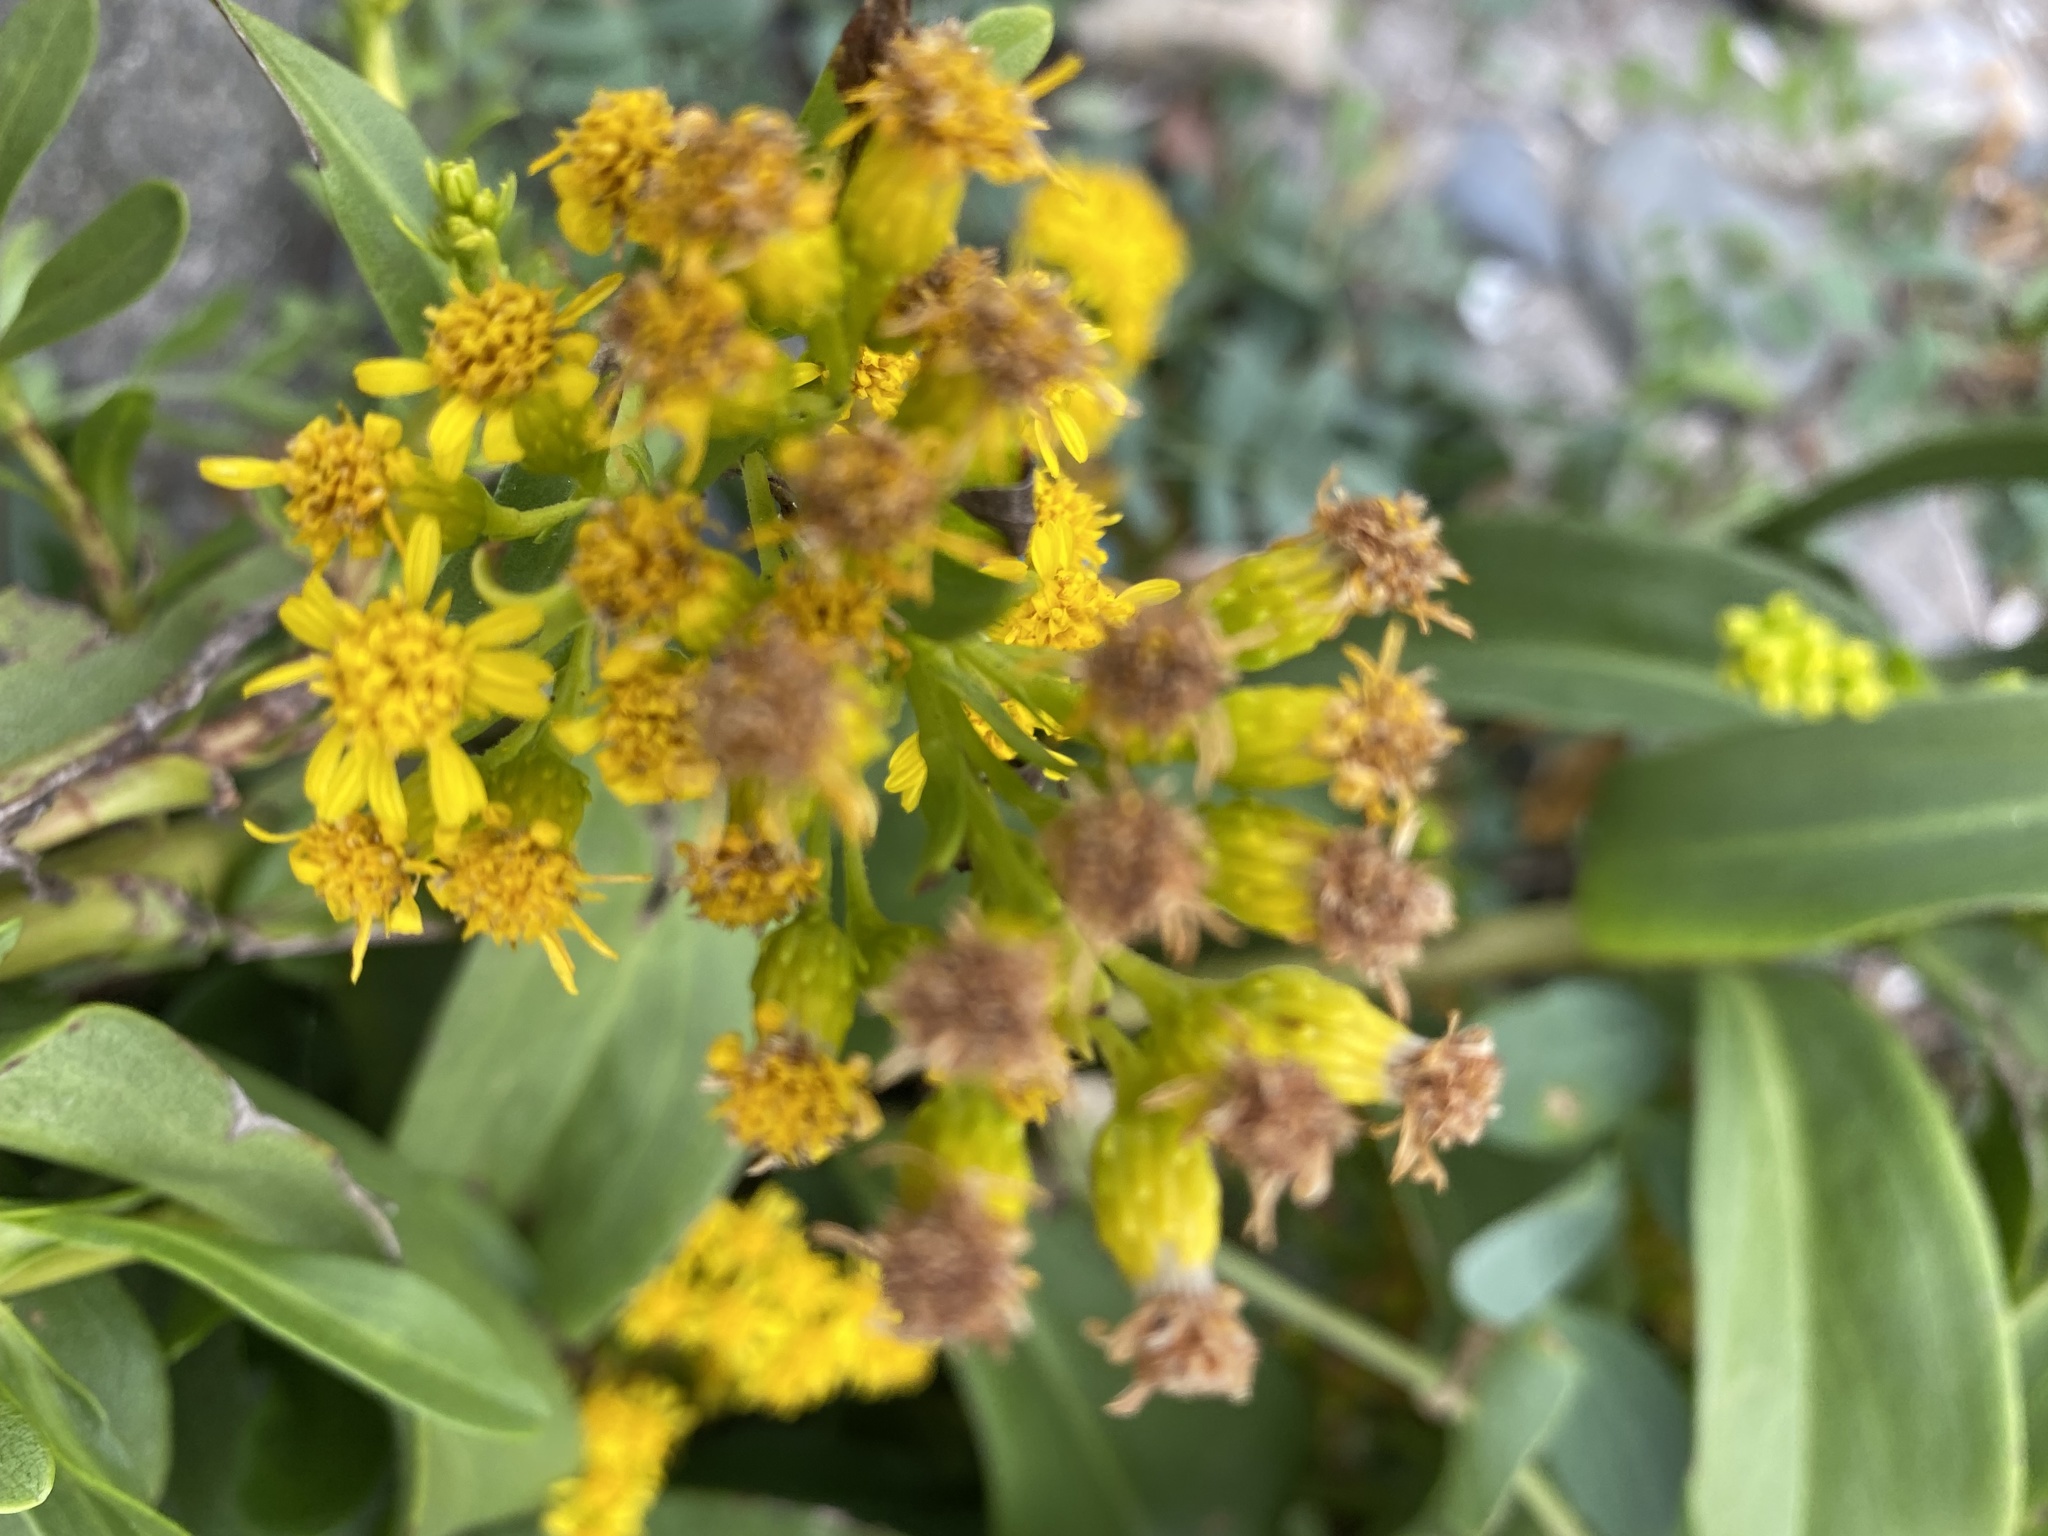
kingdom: Plantae
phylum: Tracheophyta
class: Magnoliopsida
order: Asterales
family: Asteraceae
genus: Solidago
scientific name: Solidago sempervirens
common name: Salt-marsh goldenrod
